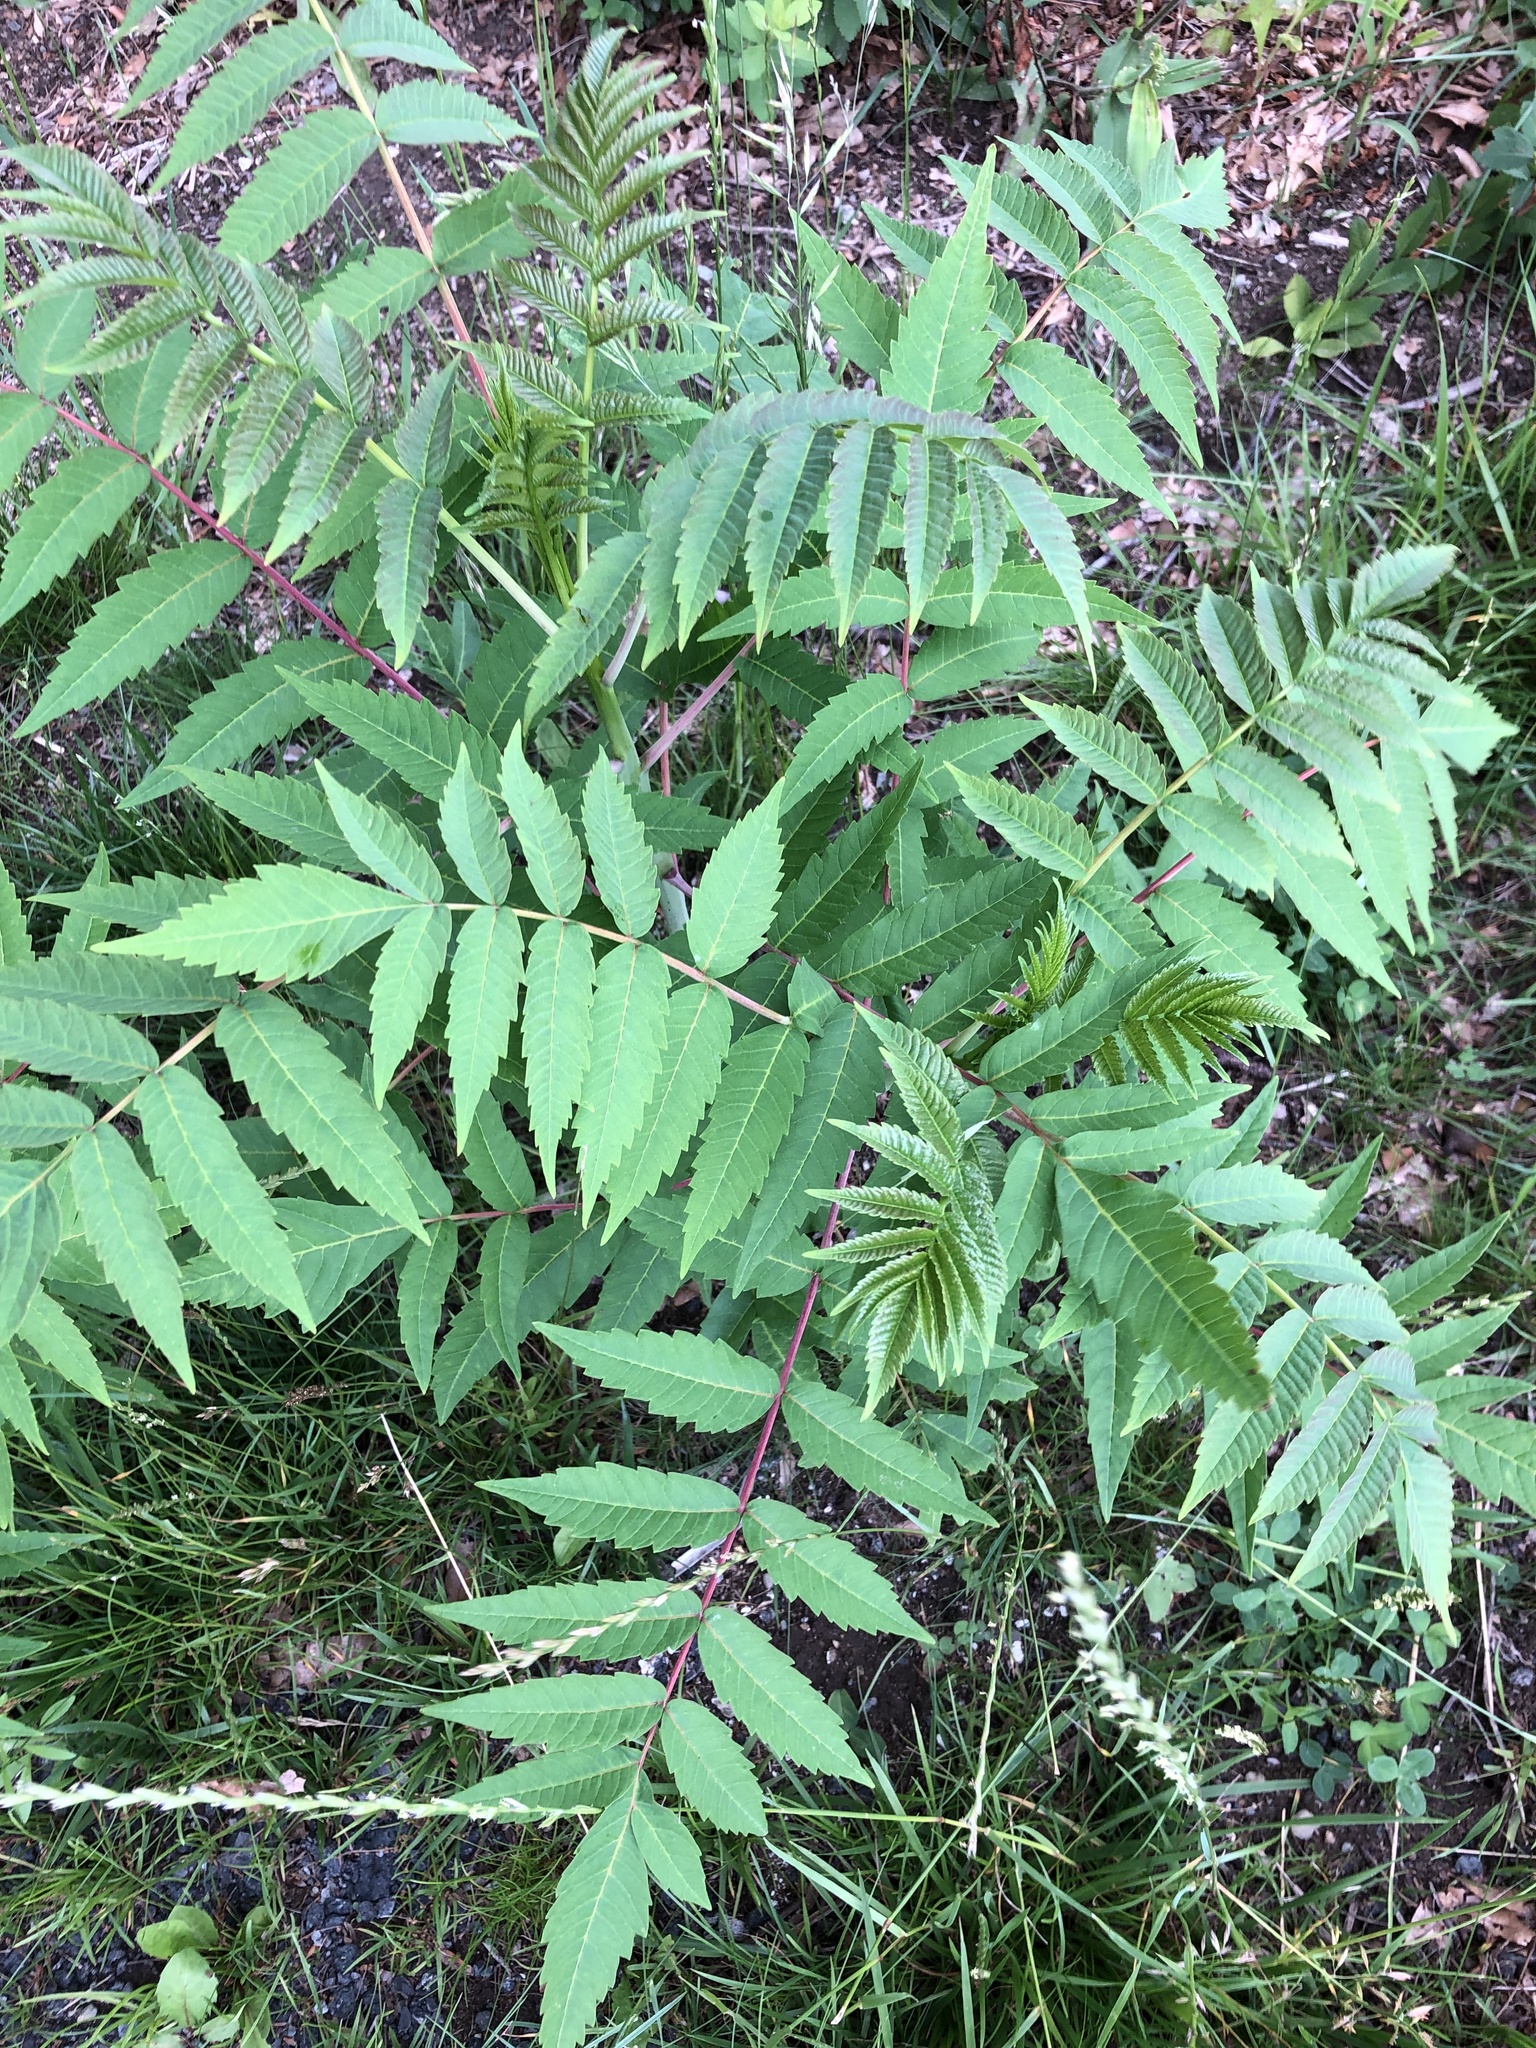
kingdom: Plantae
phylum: Tracheophyta
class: Magnoliopsida
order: Sapindales
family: Anacardiaceae
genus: Rhus
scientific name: Rhus glabra
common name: Scarlet sumac
